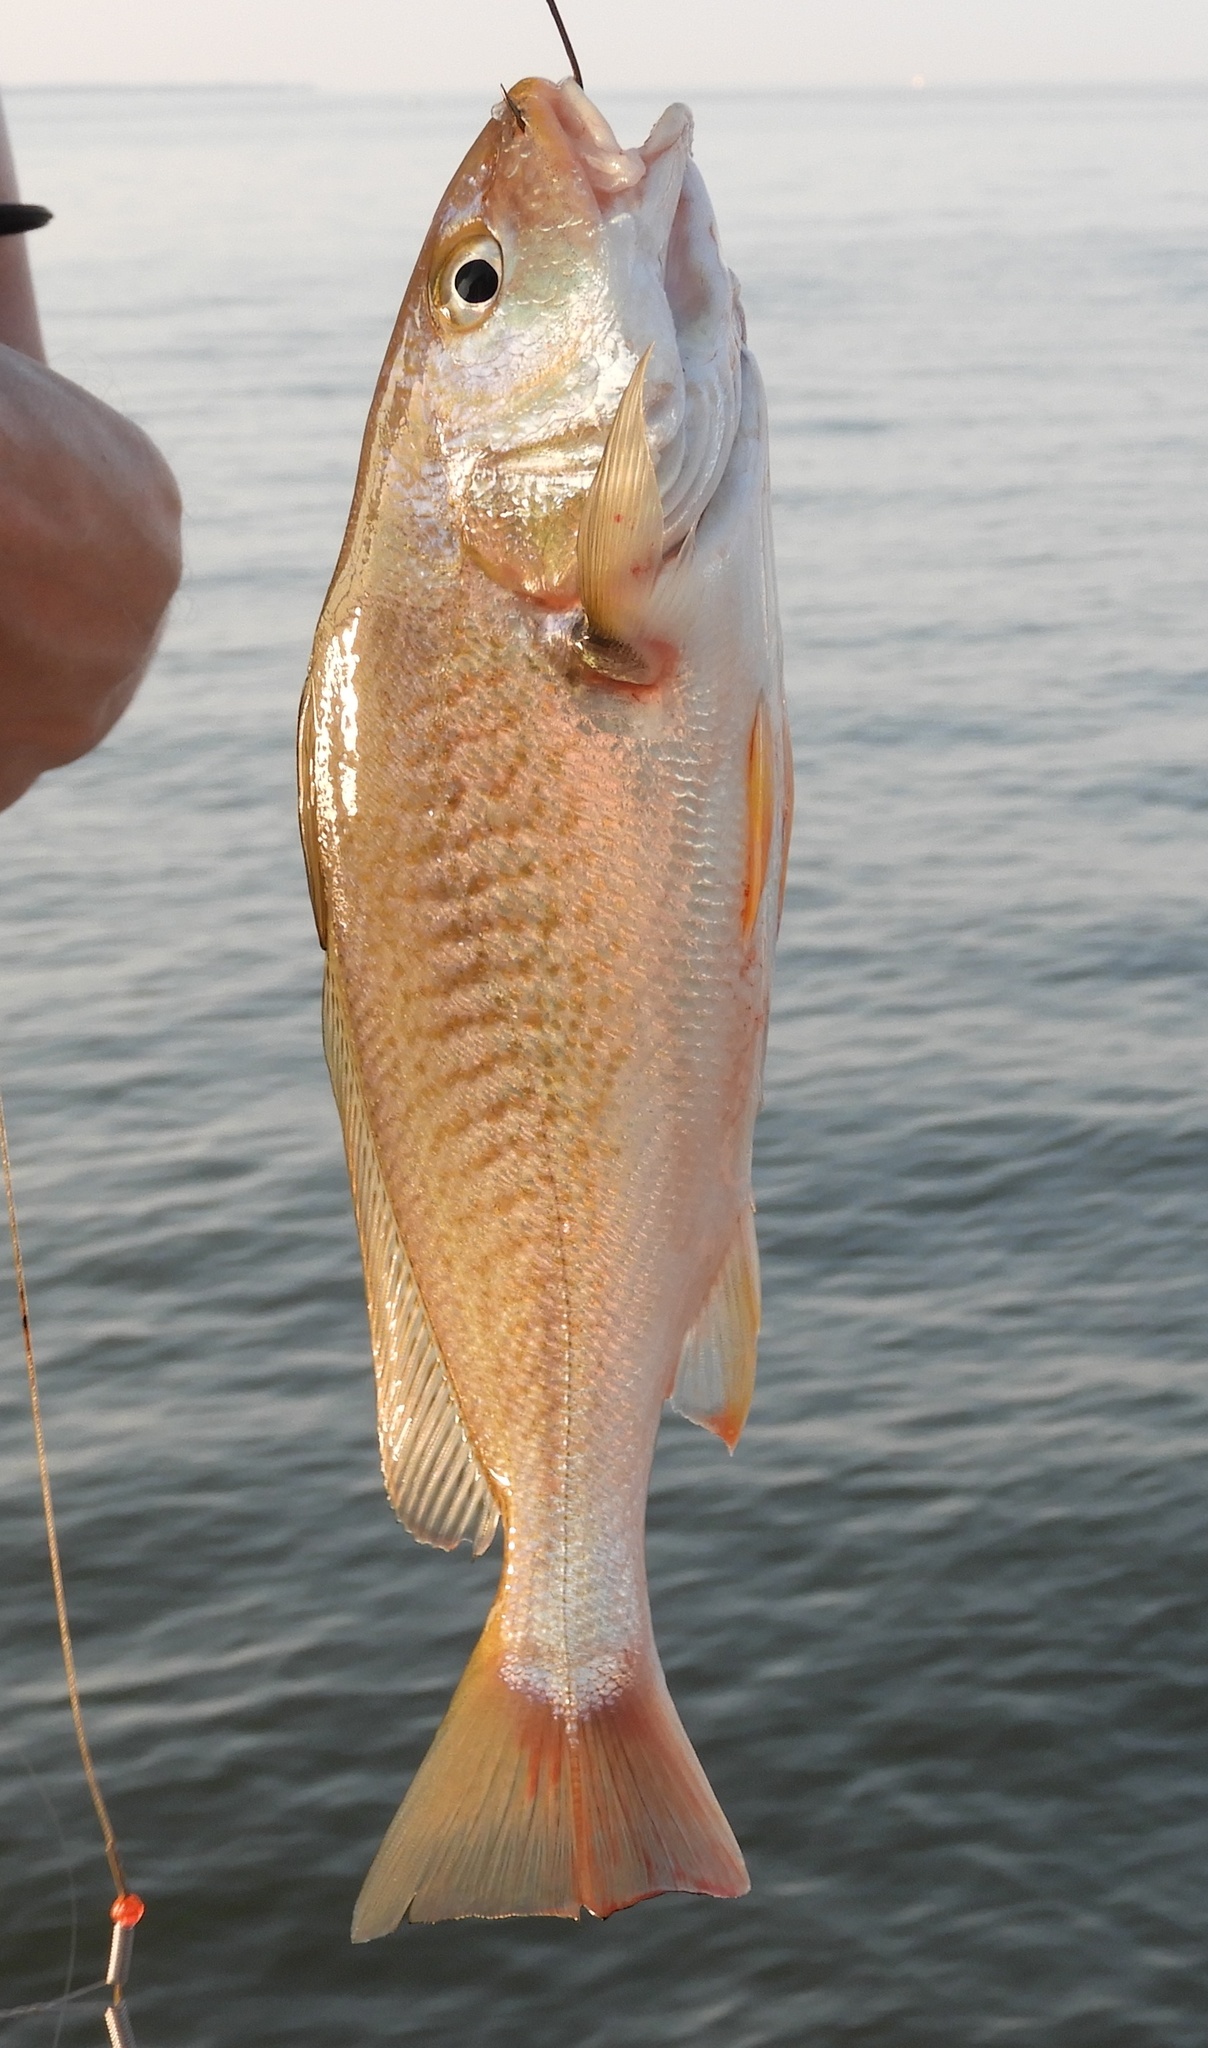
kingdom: Animalia
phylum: Chordata
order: Perciformes
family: Sciaenidae
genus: Micropogonias
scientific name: Micropogonias undulatus
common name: Atlantic croaker
